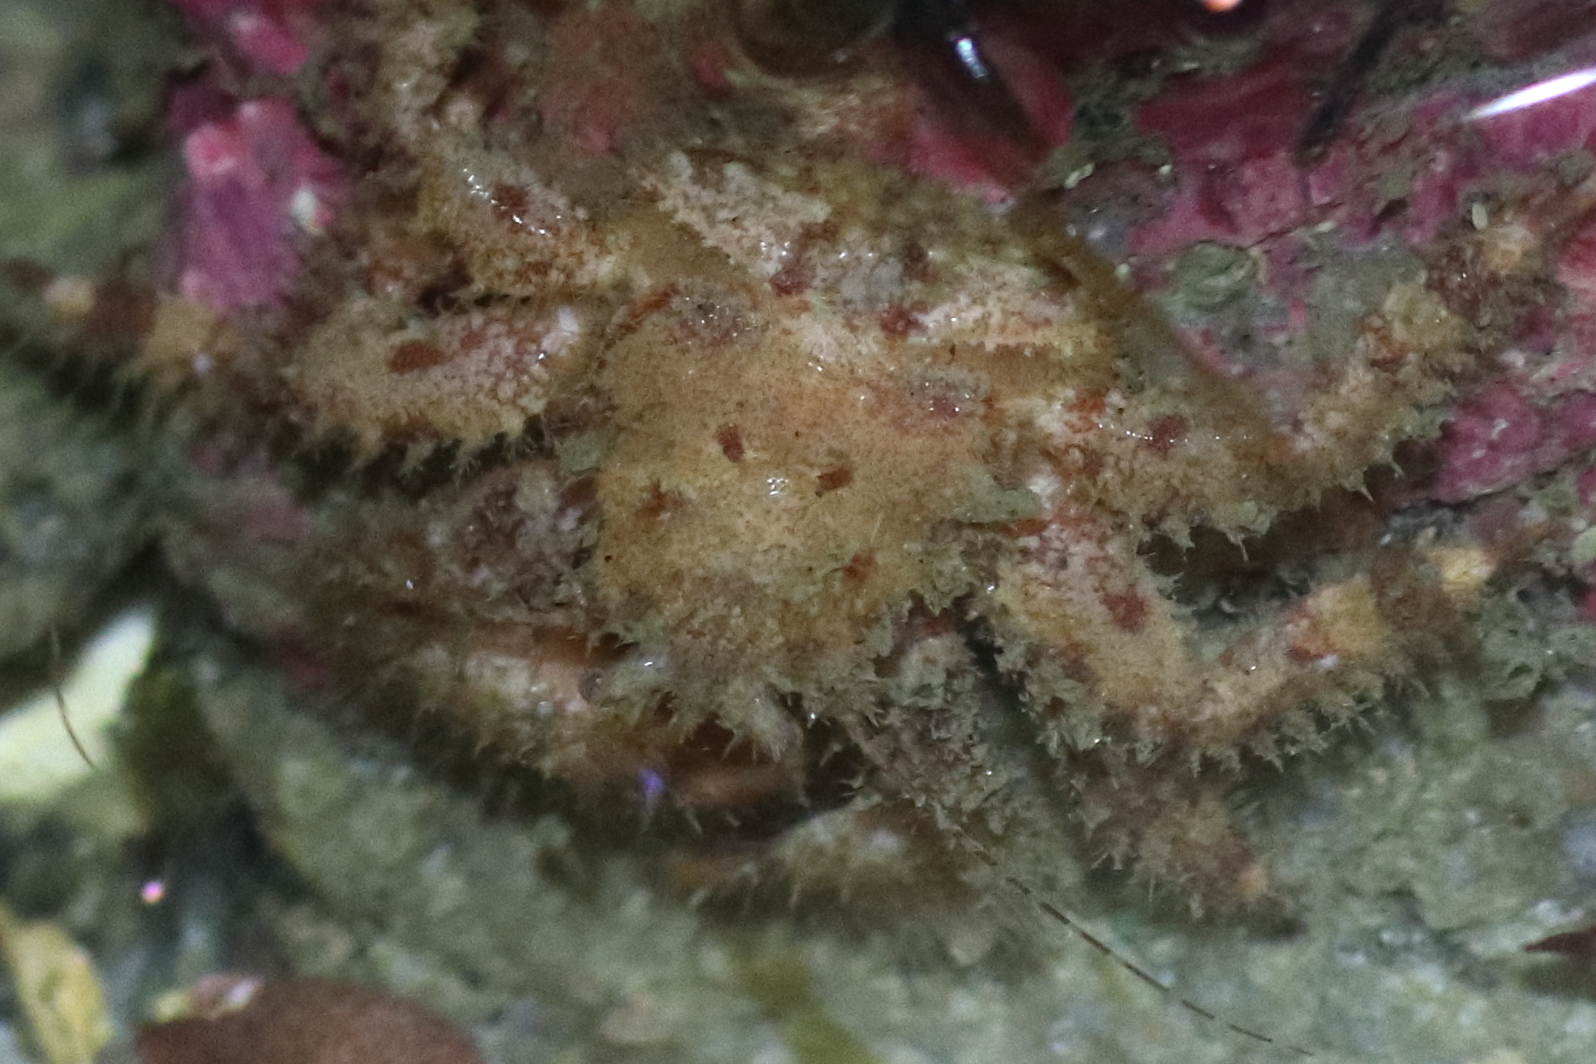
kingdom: Animalia
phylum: Arthropoda
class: Malacostraca
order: Decapoda
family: Hapalogastridae
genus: Hapalogaster
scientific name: Hapalogaster mertensii
